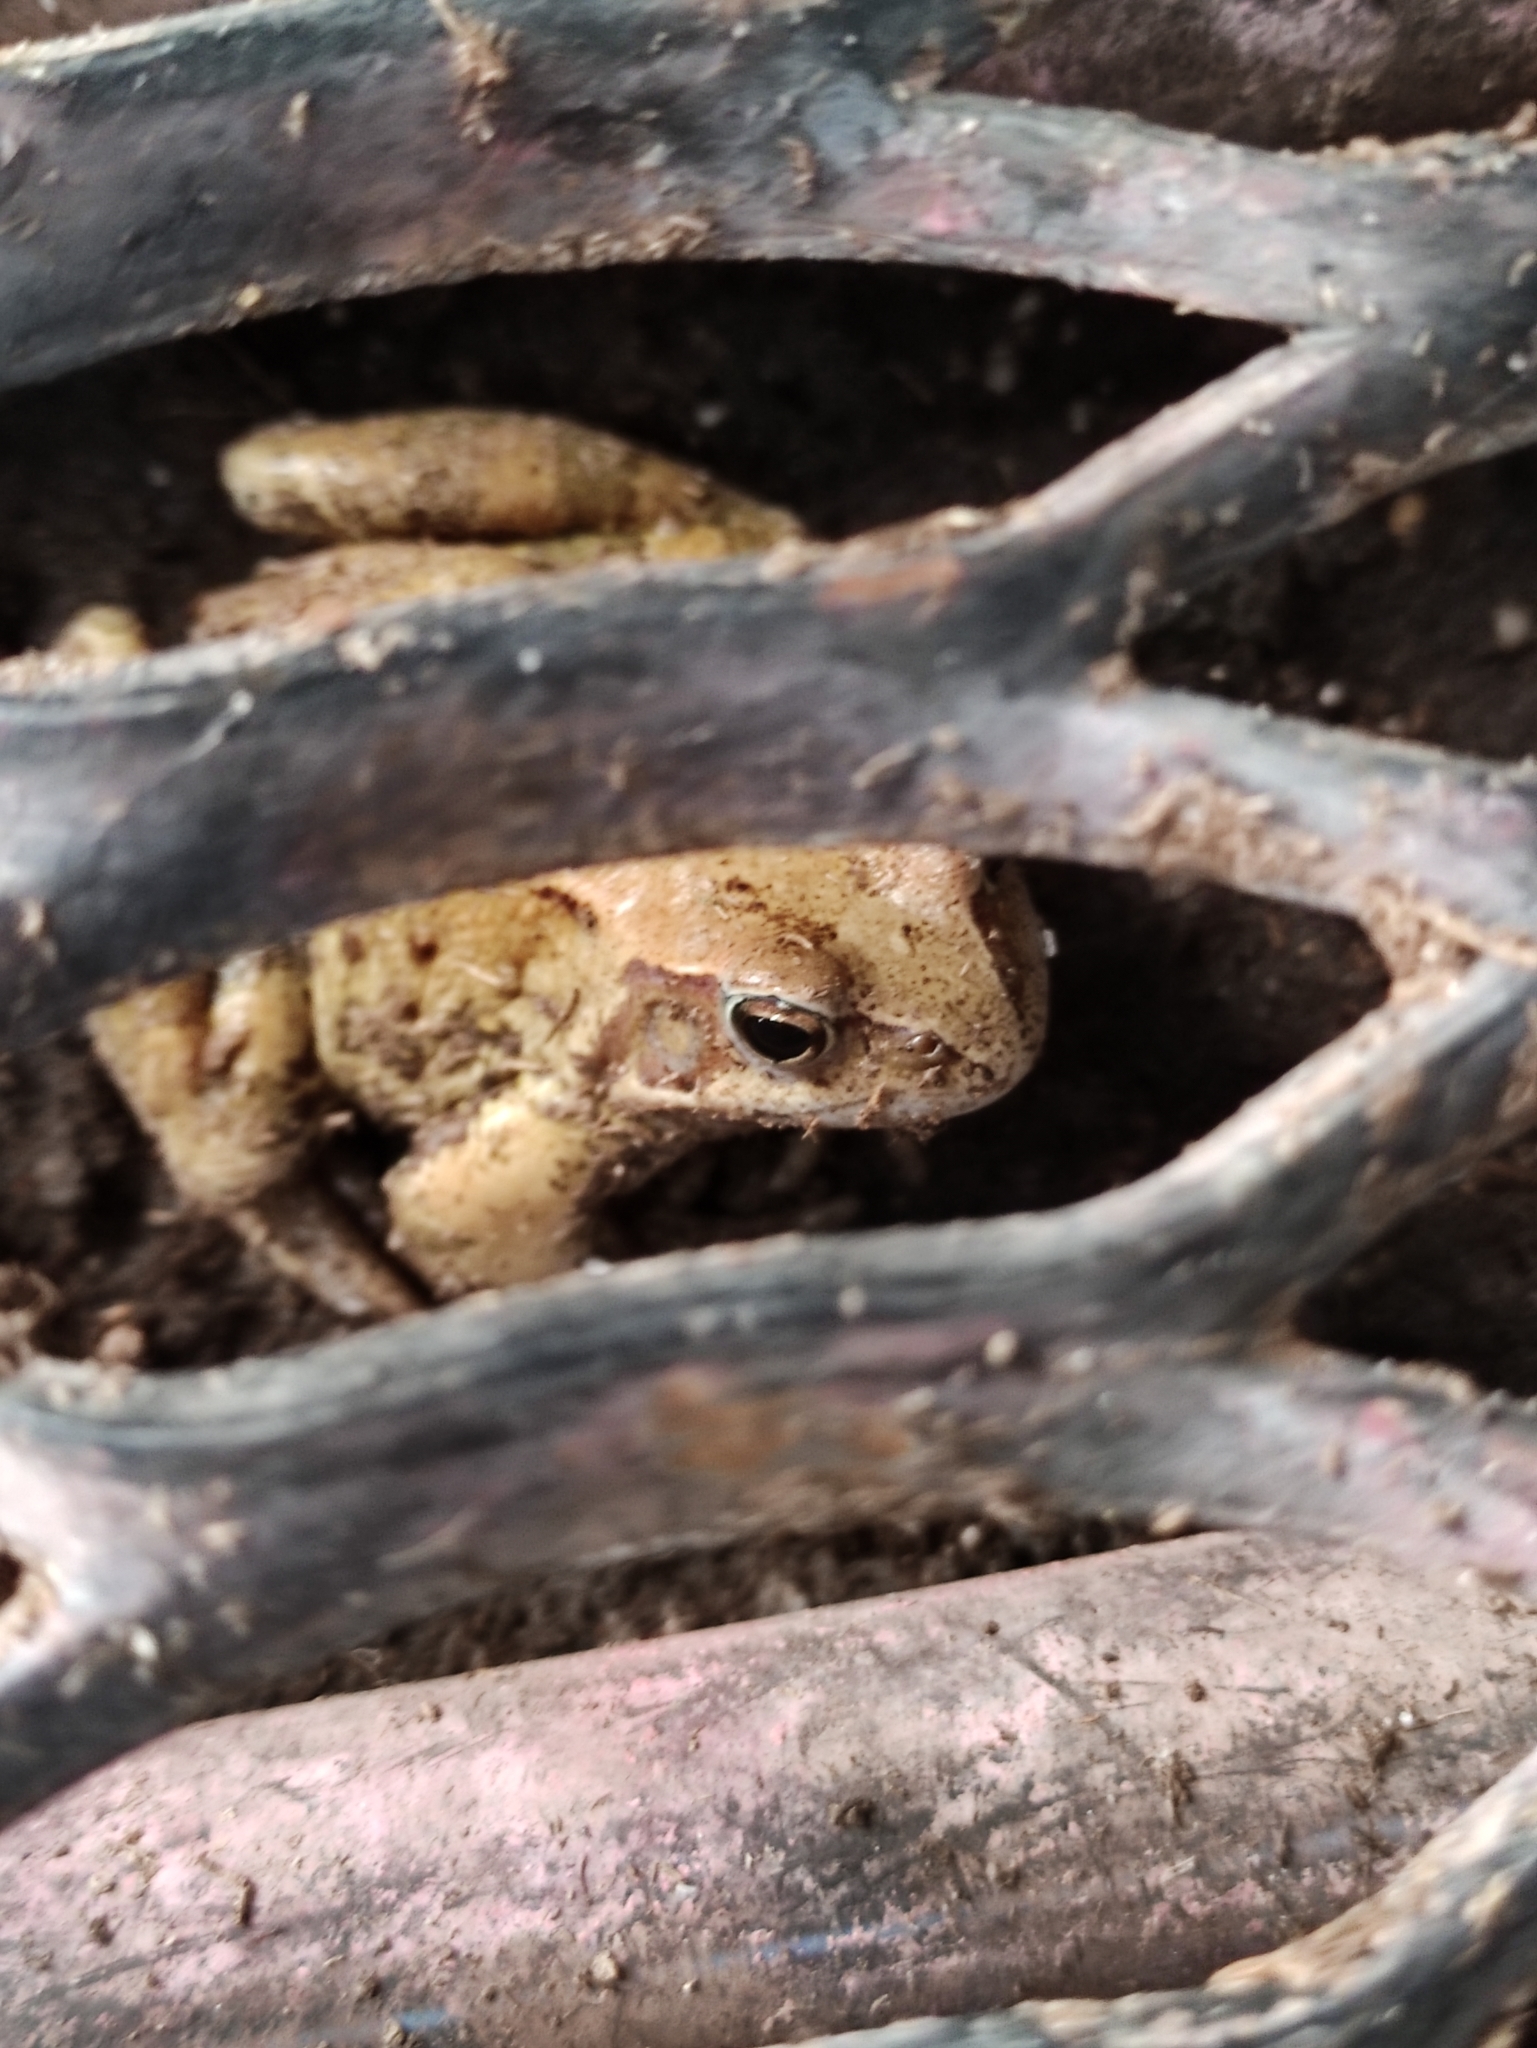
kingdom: Animalia
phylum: Chordata
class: Amphibia
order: Anura
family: Ranidae
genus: Rana
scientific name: Rana temporaria
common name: Common frog
